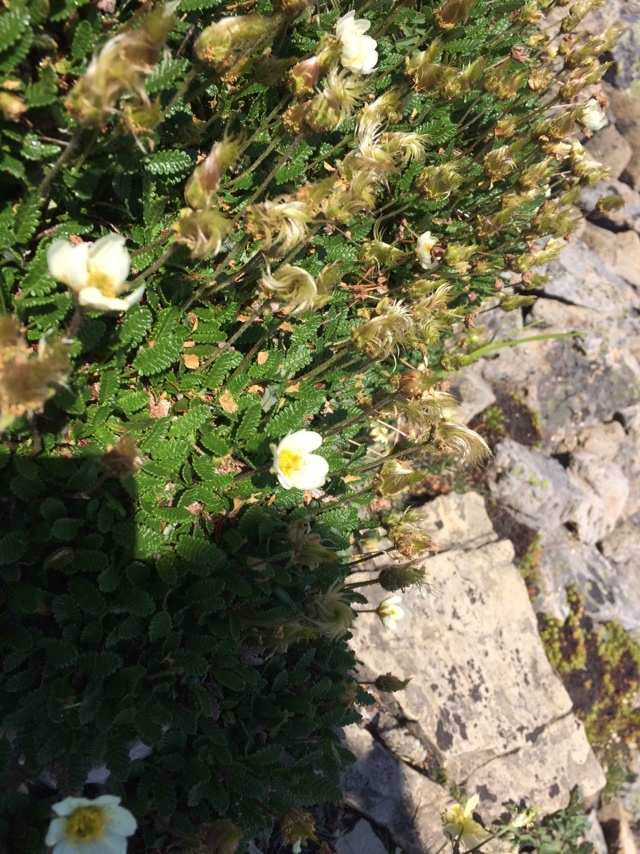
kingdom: Plantae
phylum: Tracheophyta
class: Magnoliopsida
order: Rosales
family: Rosaceae
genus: Dryas
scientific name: Dryas octopetala
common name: Eight-petal mountain-avens
